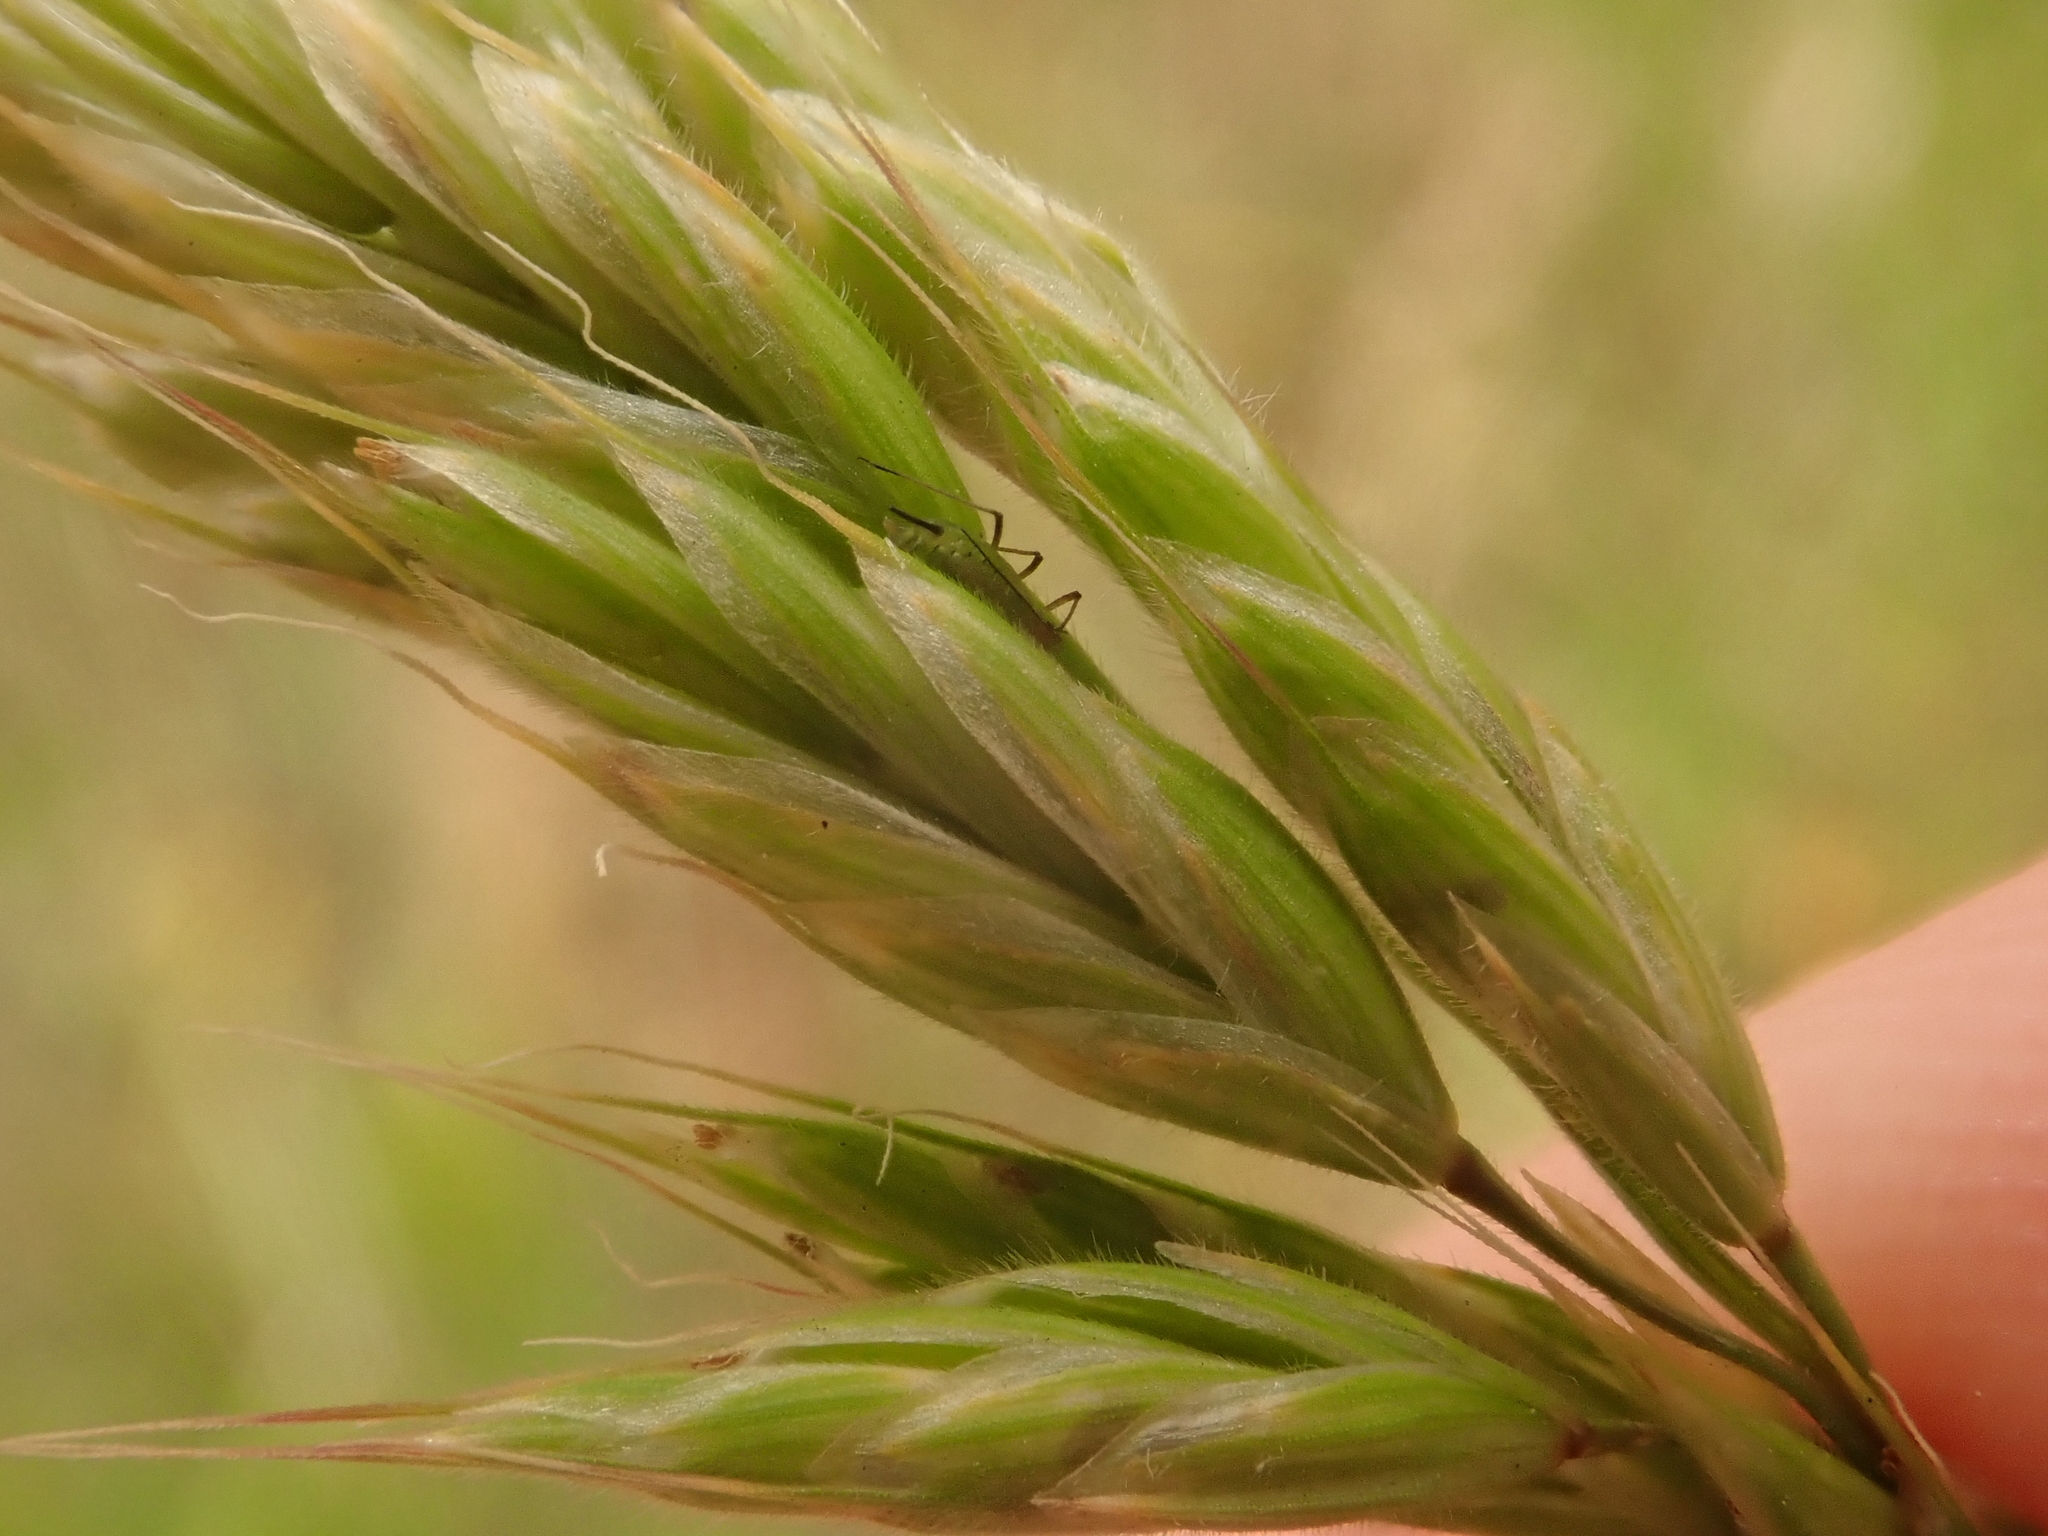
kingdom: Plantae
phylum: Tracheophyta
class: Liliopsida
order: Poales
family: Poaceae
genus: Bromus
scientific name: Bromus hordeaceus
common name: Soft brome
